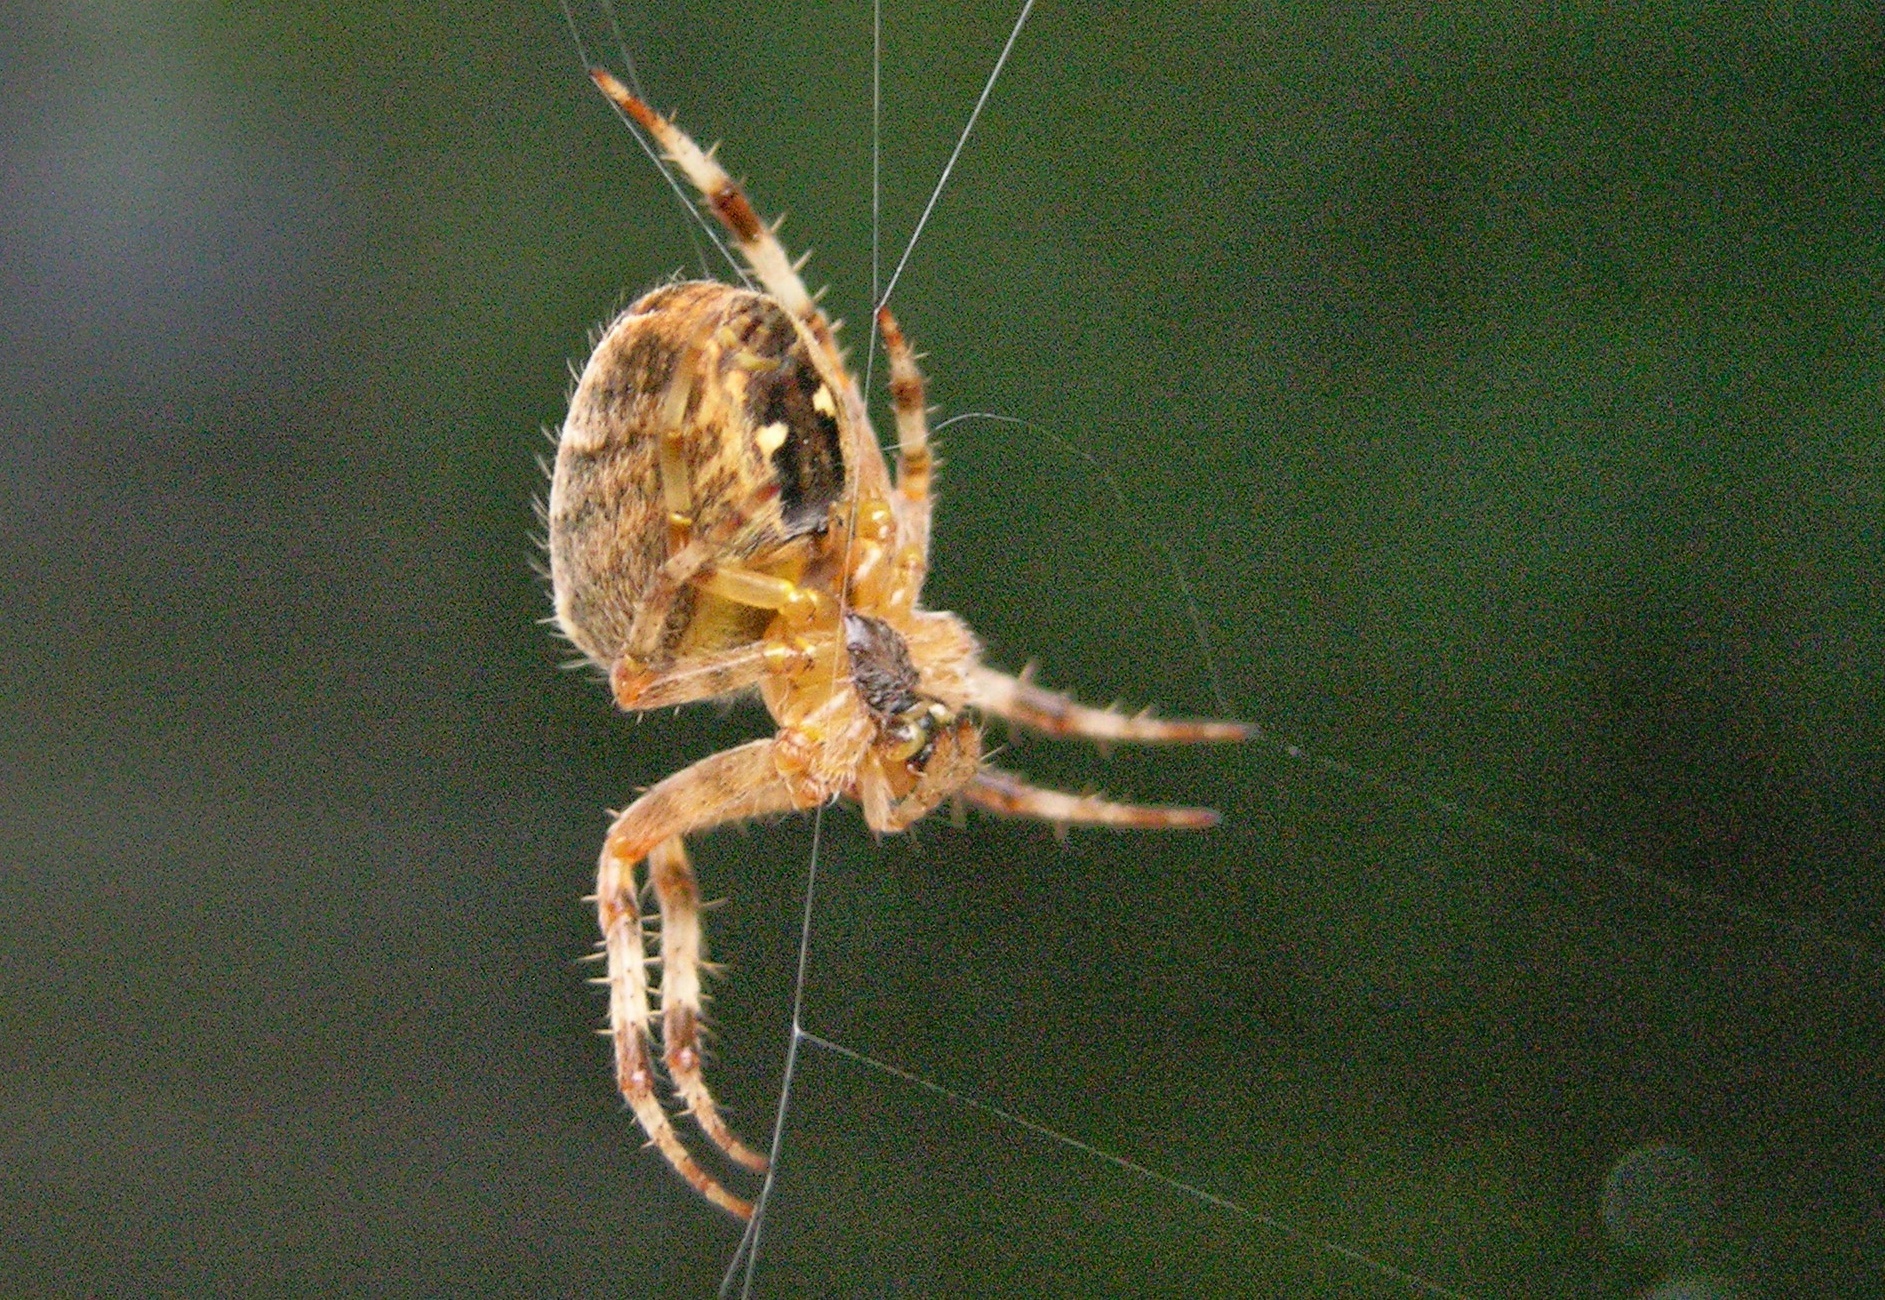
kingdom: Animalia
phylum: Arthropoda
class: Arachnida
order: Araneae
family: Araneidae
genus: Araneus
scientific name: Araneus diadematus
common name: Cross orbweaver
